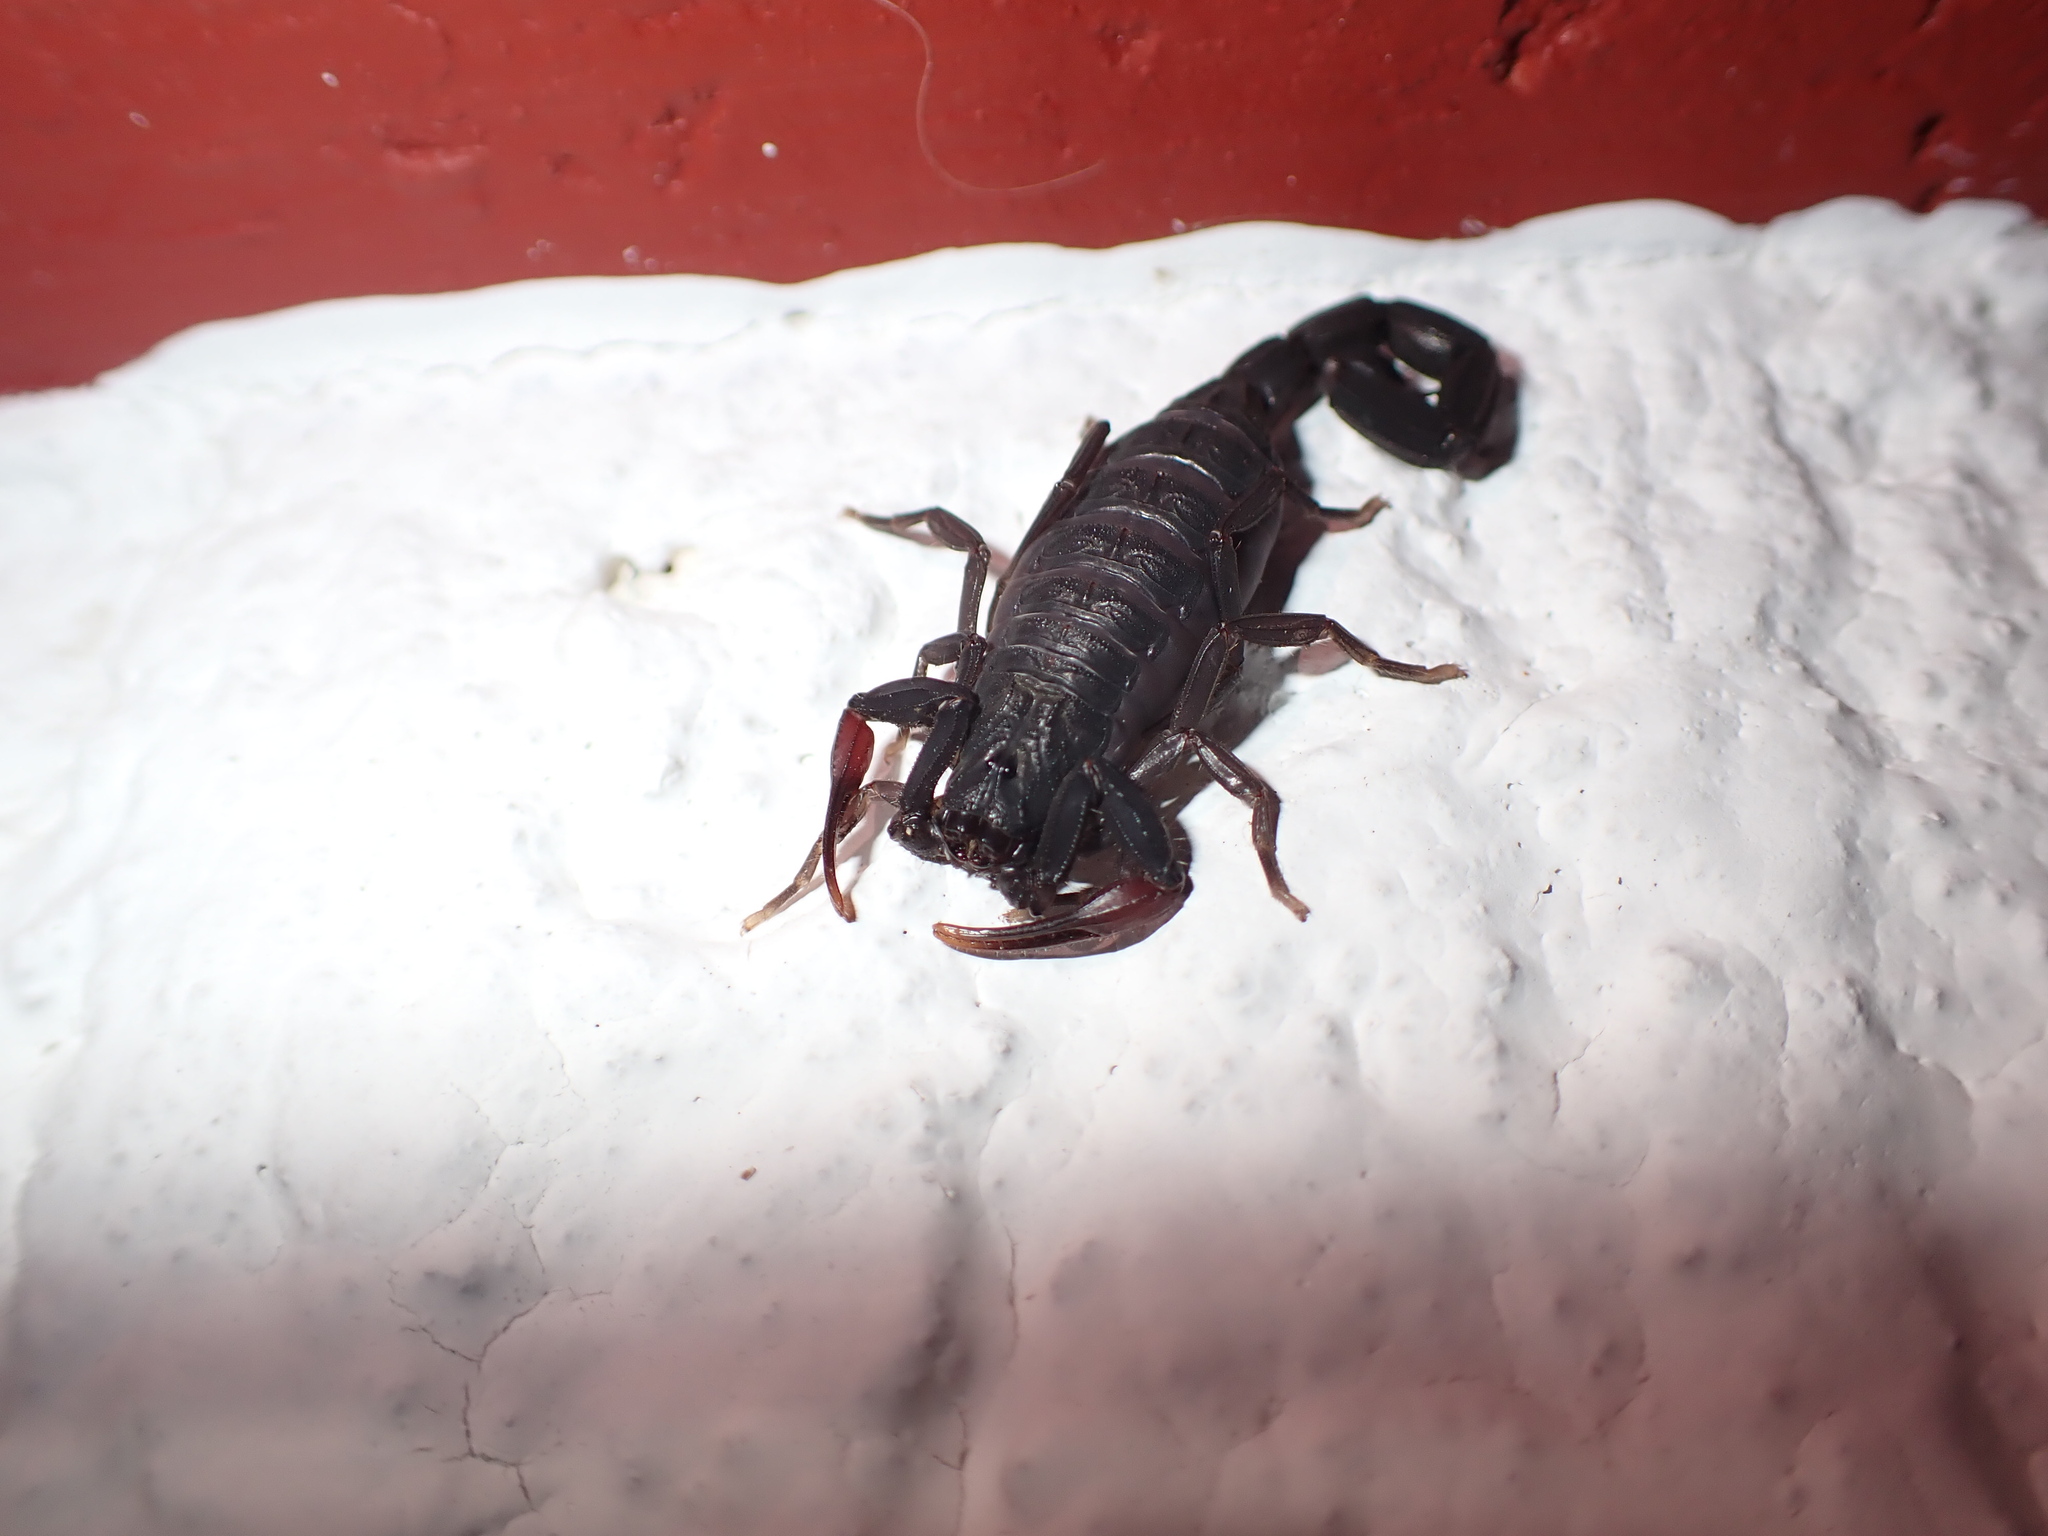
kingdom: Animalia
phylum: Arthropoda
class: Arachnida
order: Scorpiones
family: Buthidae
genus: Centruroides
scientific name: Centruroides gracilis
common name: Scorpions
